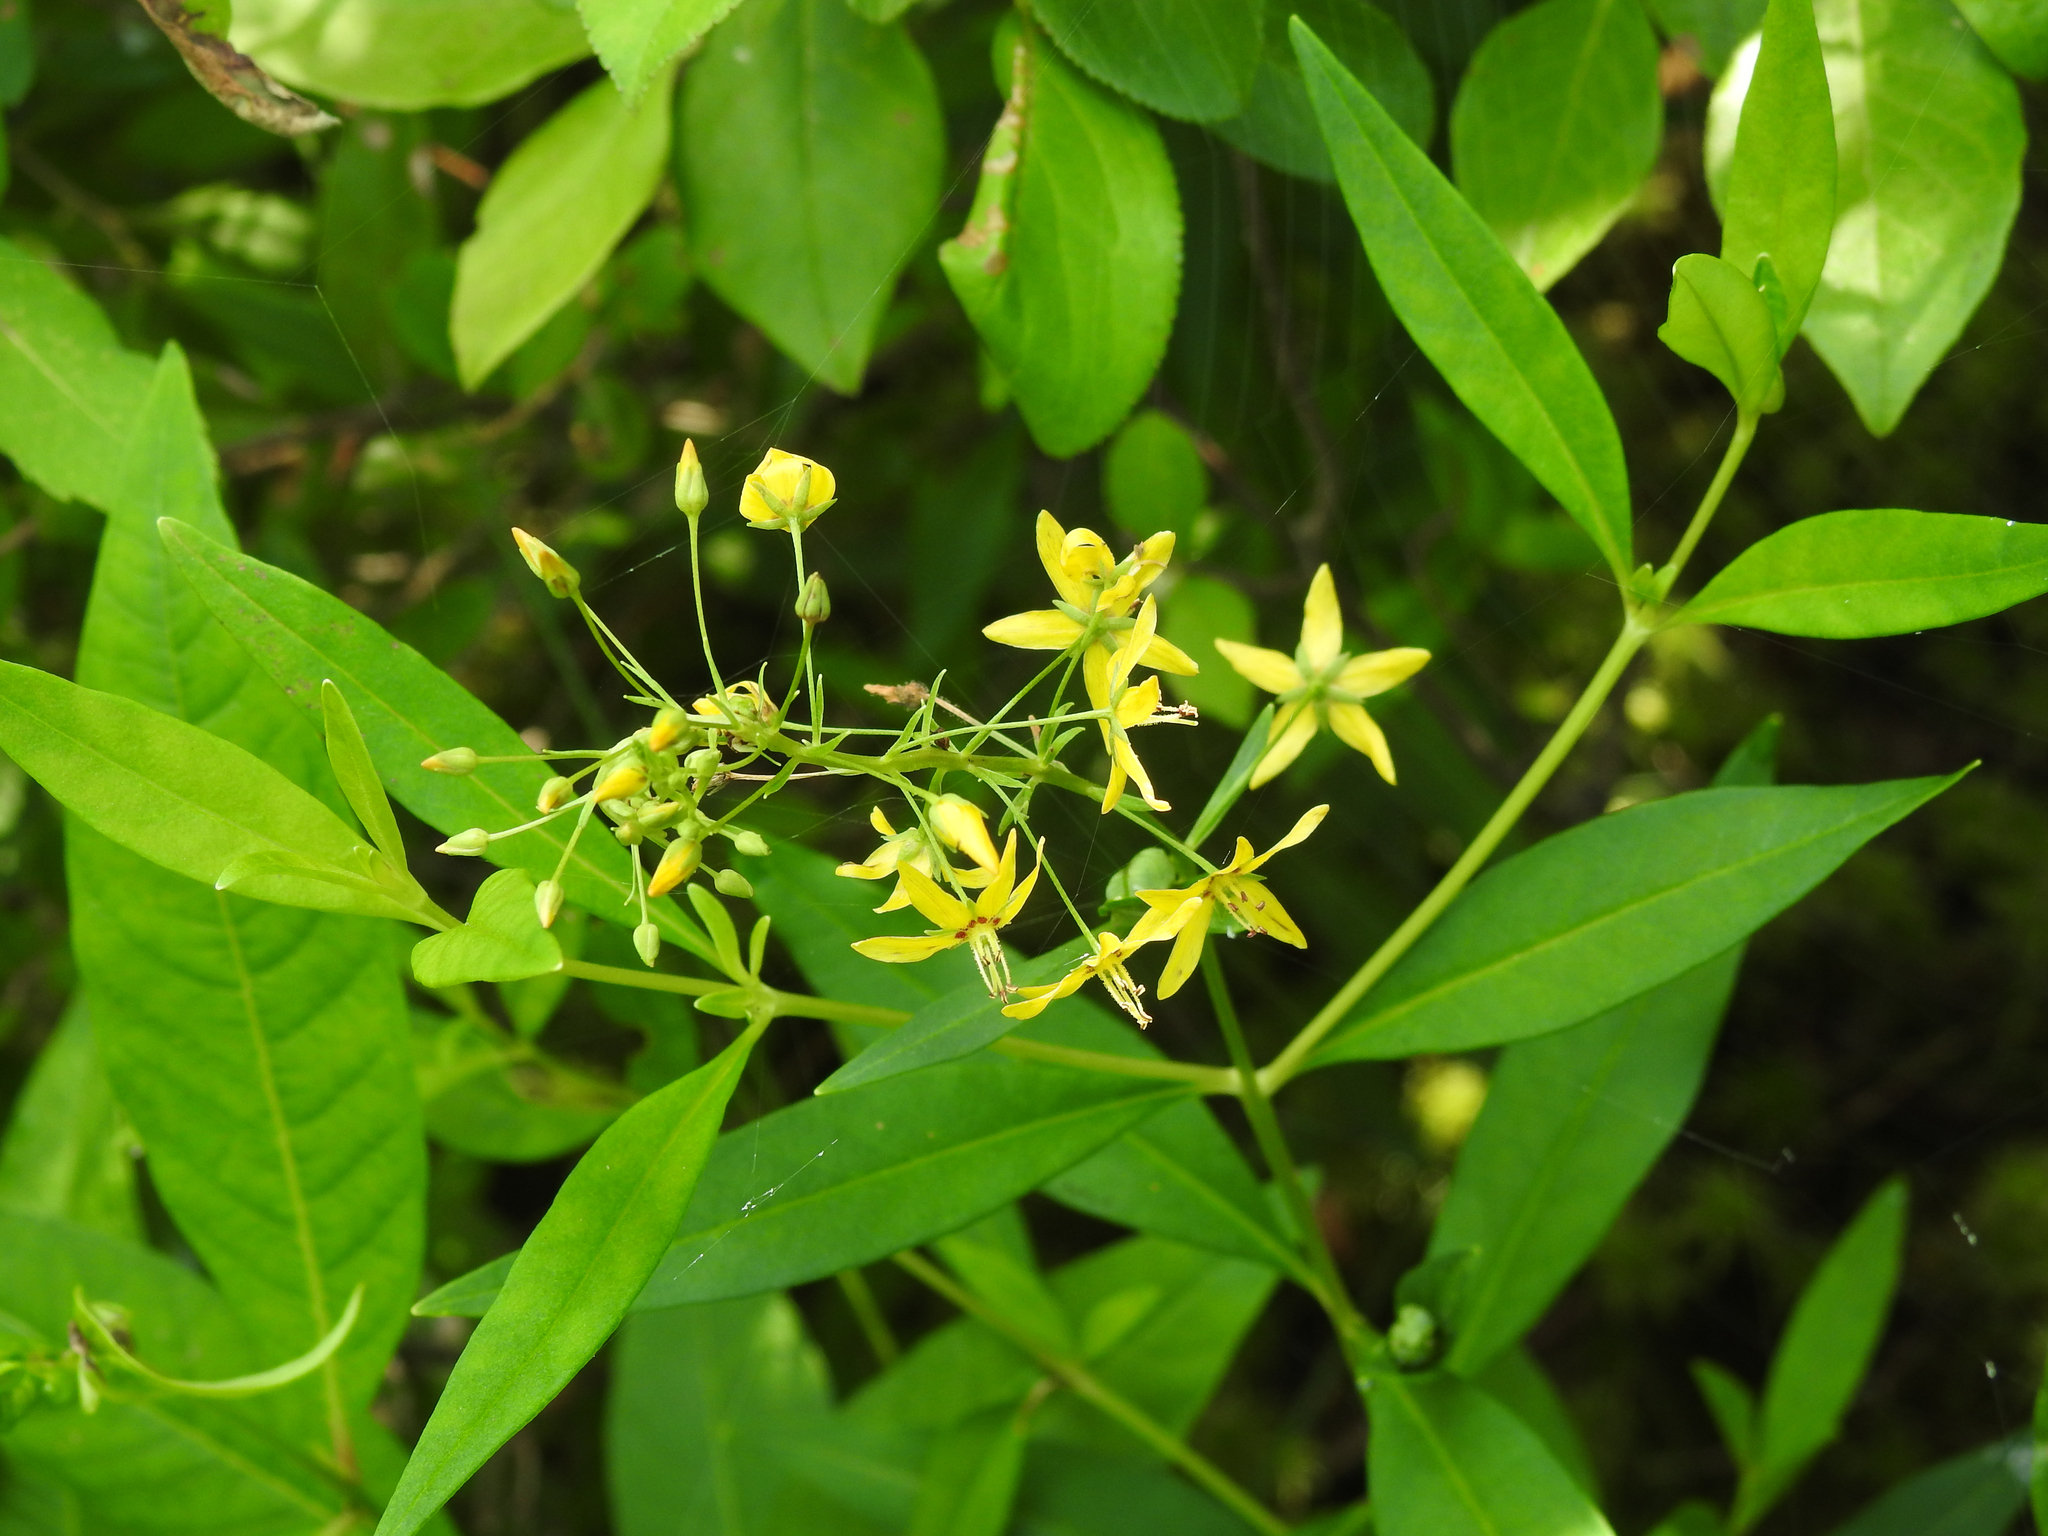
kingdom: Plantae
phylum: Tracheophyta
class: Magnoliopsida
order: Ericales
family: Primulaceae
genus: Lysimachia
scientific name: Lysimachia terrestris
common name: Lake loosestrife
